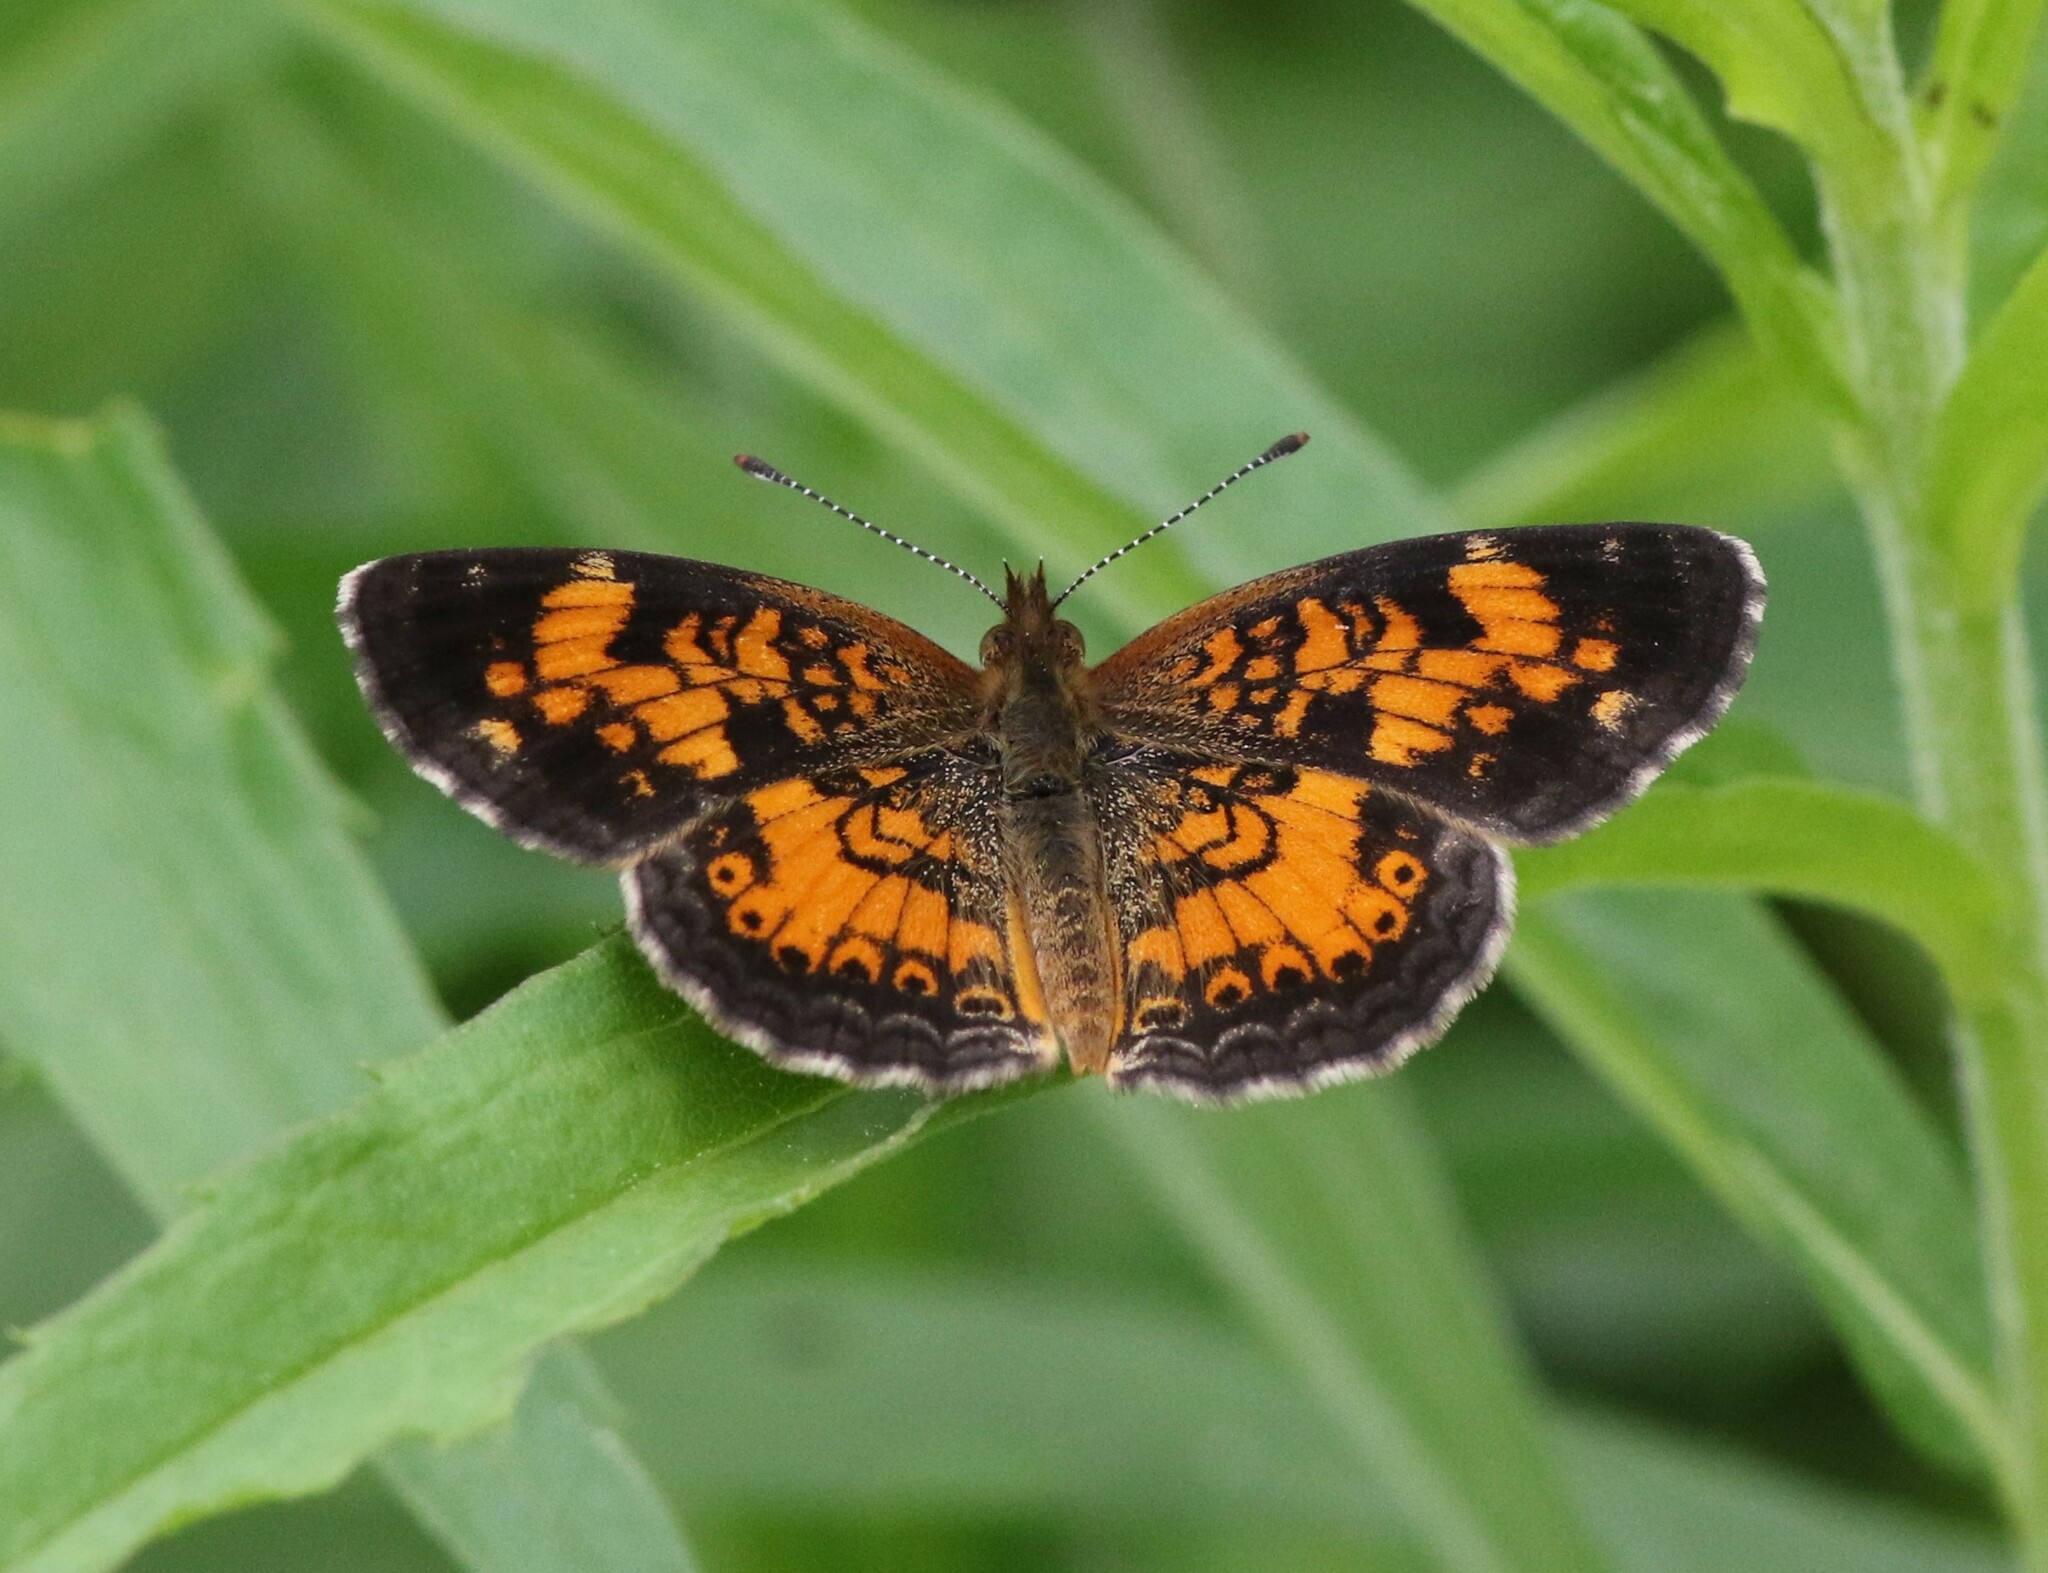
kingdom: Animalia
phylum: Arthropoda
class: Insecta
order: Lepidoptera
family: Nymphalidae
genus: Phyciodes
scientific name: Phyciodes tharos
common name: Pearl crescent
